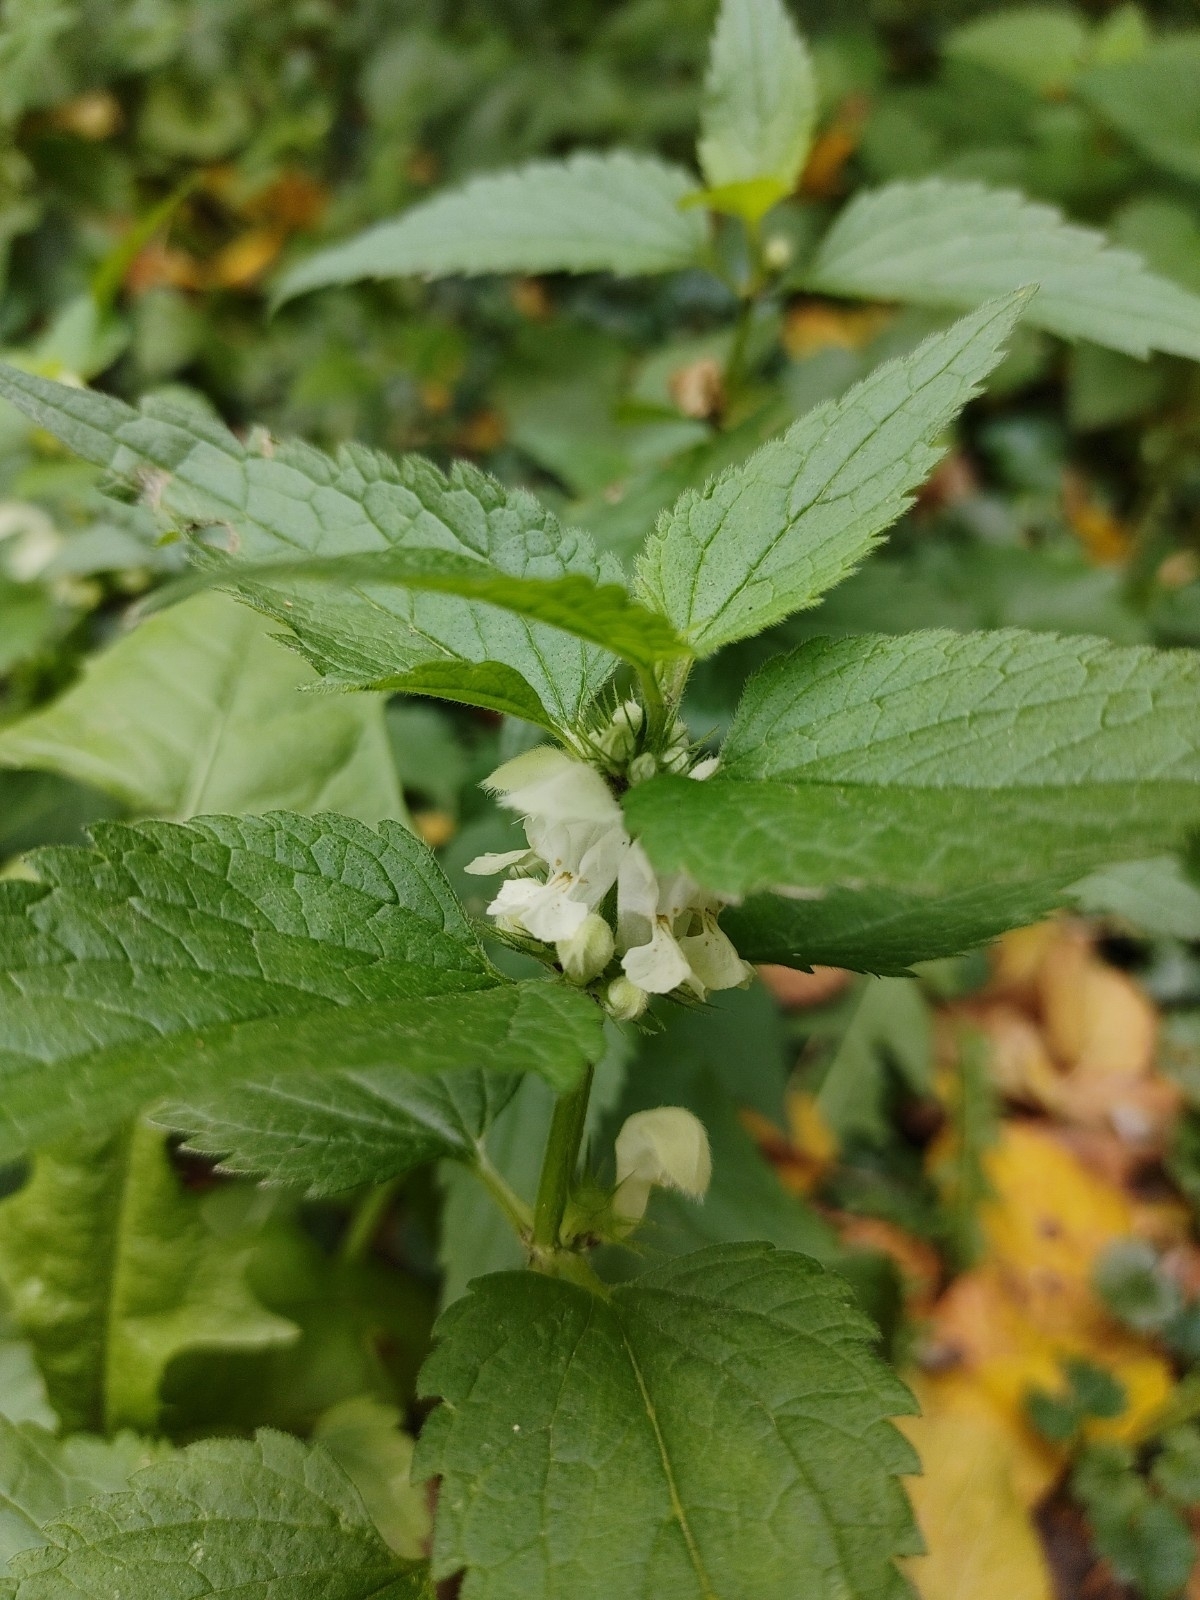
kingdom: Plantae
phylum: Tracheophyta
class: Magnoliopsida
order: Lamiales
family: Lamiaceae
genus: Lamium
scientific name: Lamium album
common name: White dead-nettle
